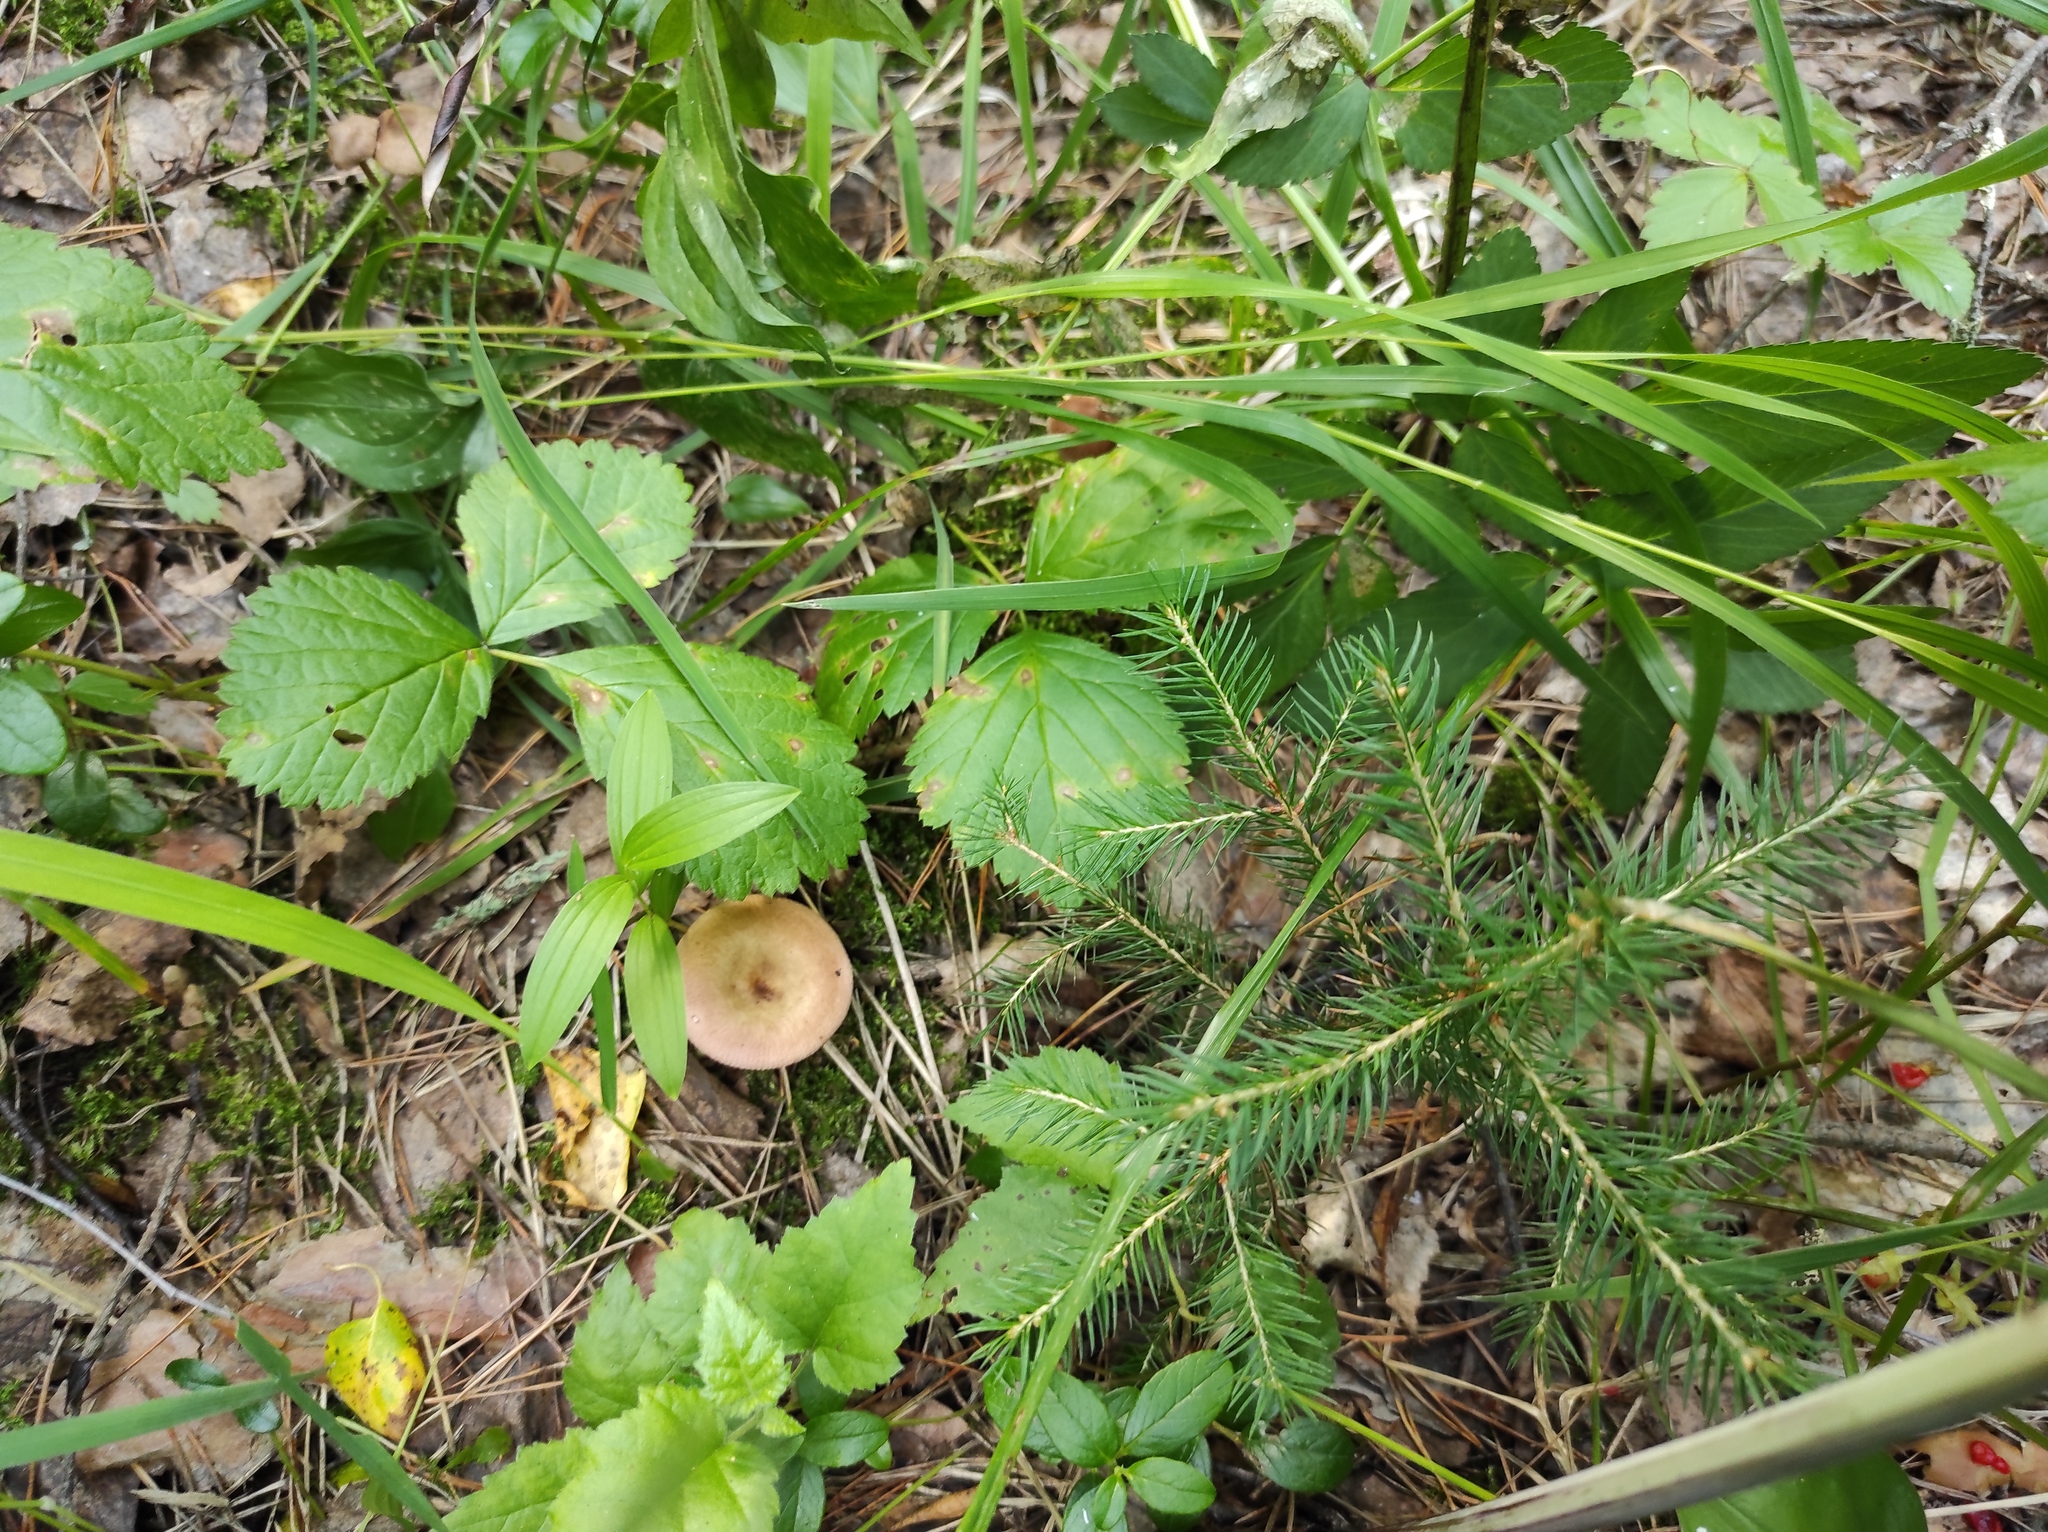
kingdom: Plantae
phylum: Tracheophyta
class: Pinopsida
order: Pinales
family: Pinaceae
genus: Picea
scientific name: Picea obovata
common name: Siberian spruce
